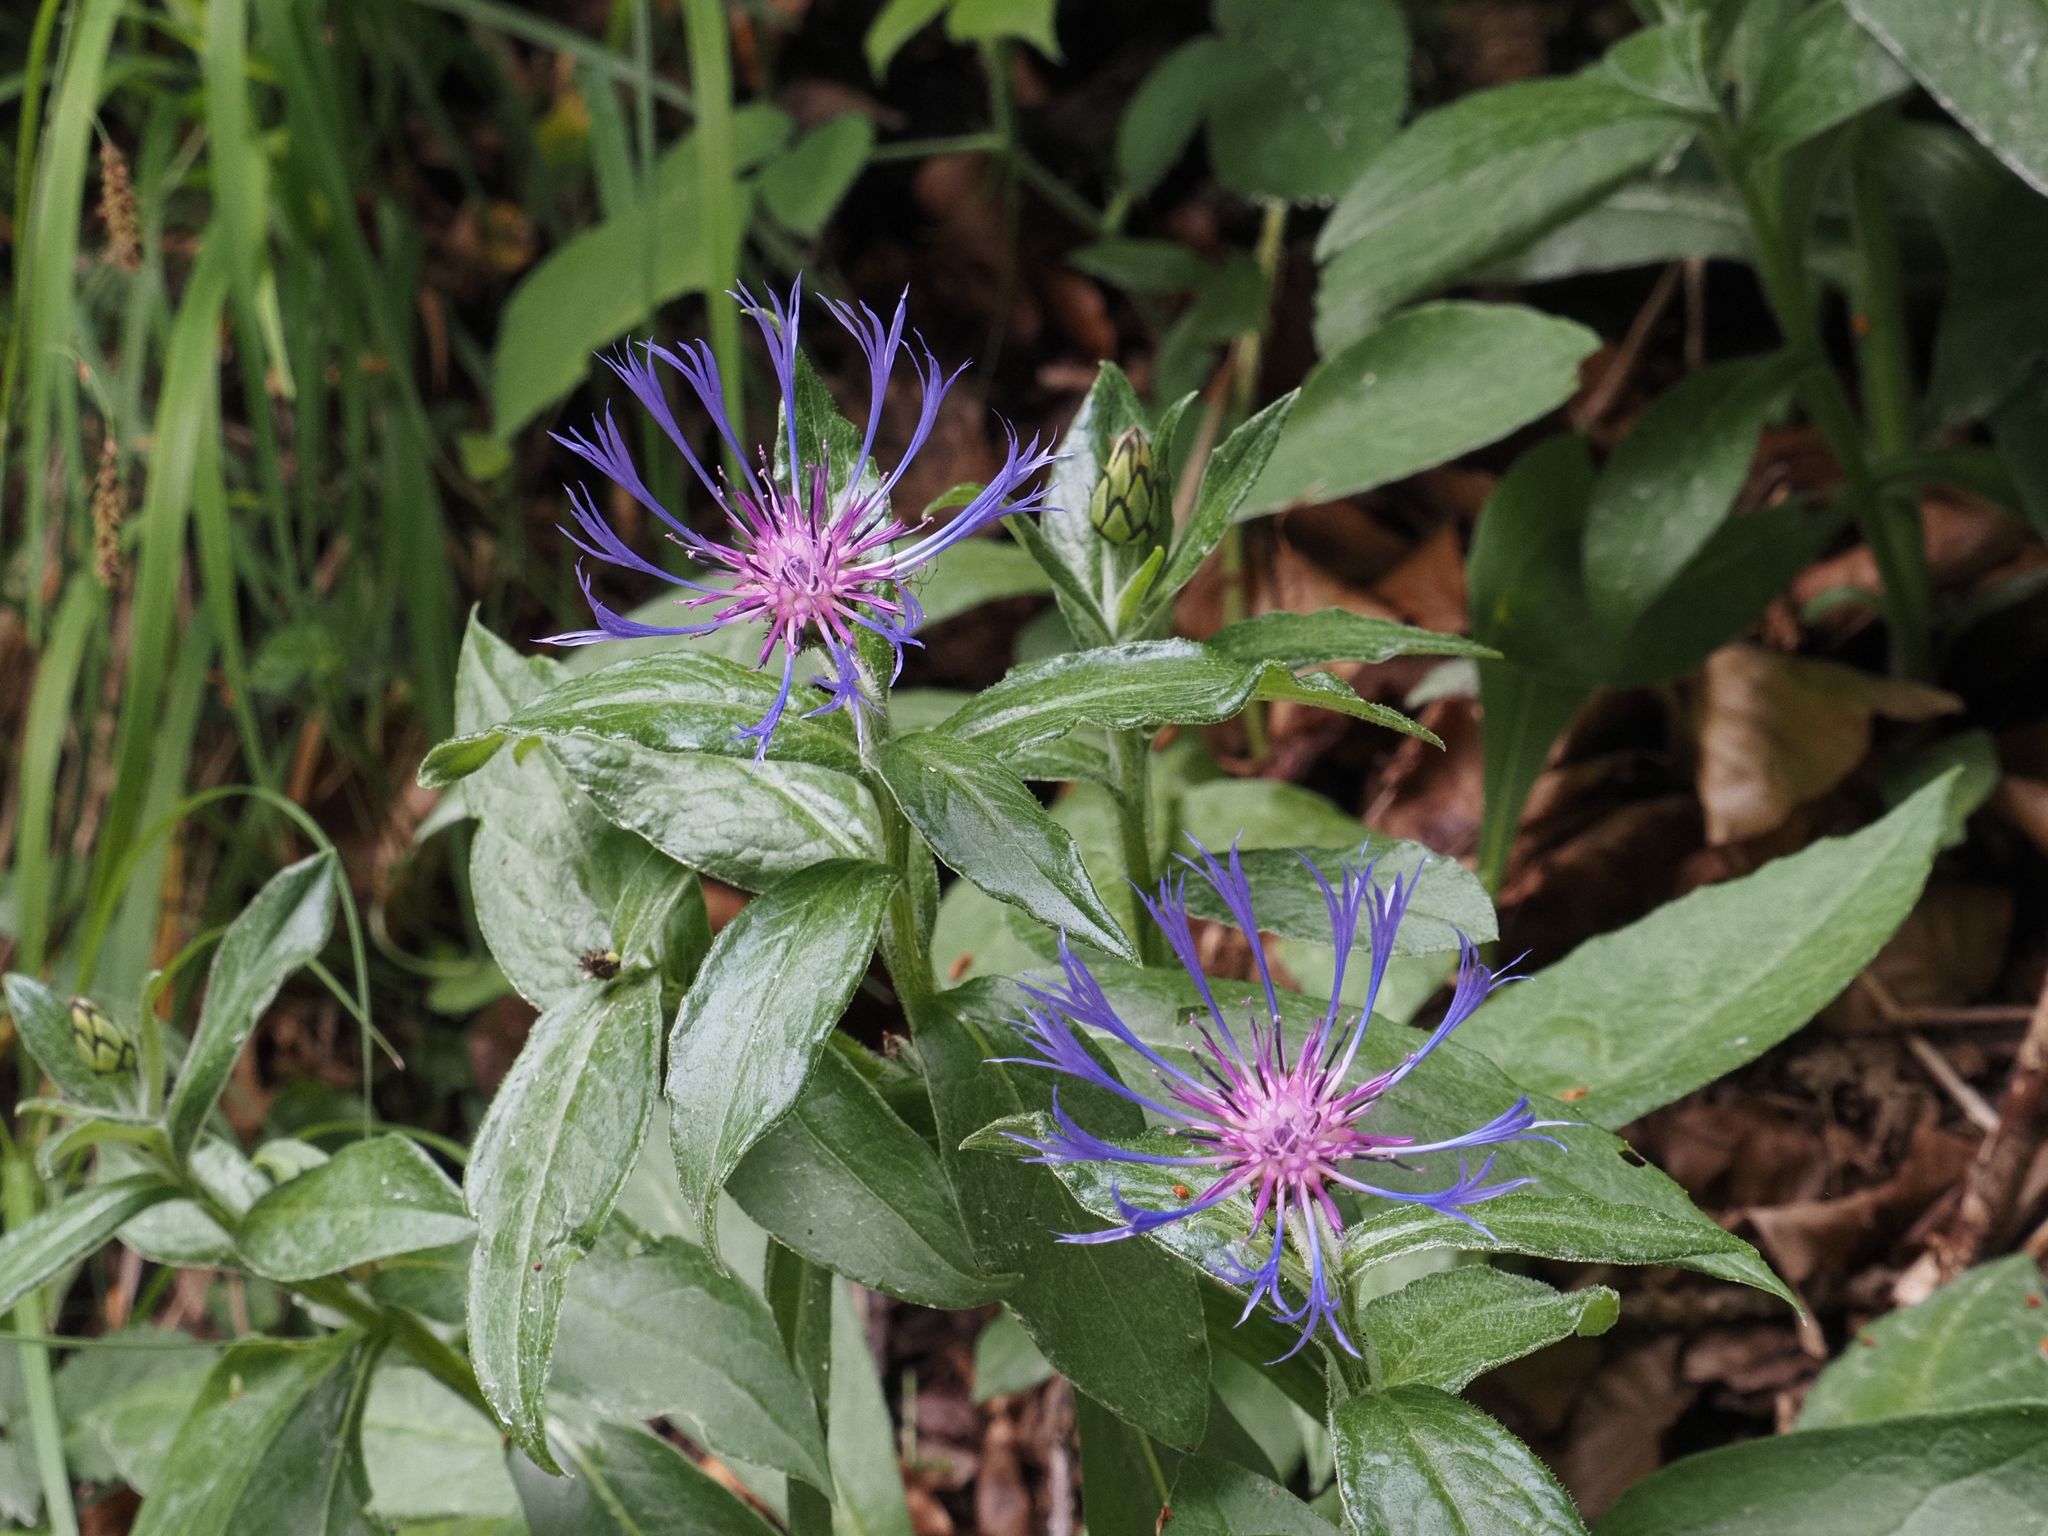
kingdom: Plantae
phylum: Tracheophyta
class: Magnoliopsida
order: Asterales
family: Asteraceae
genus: Centaurea
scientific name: Centaurea montana
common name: Perennial cornflower
